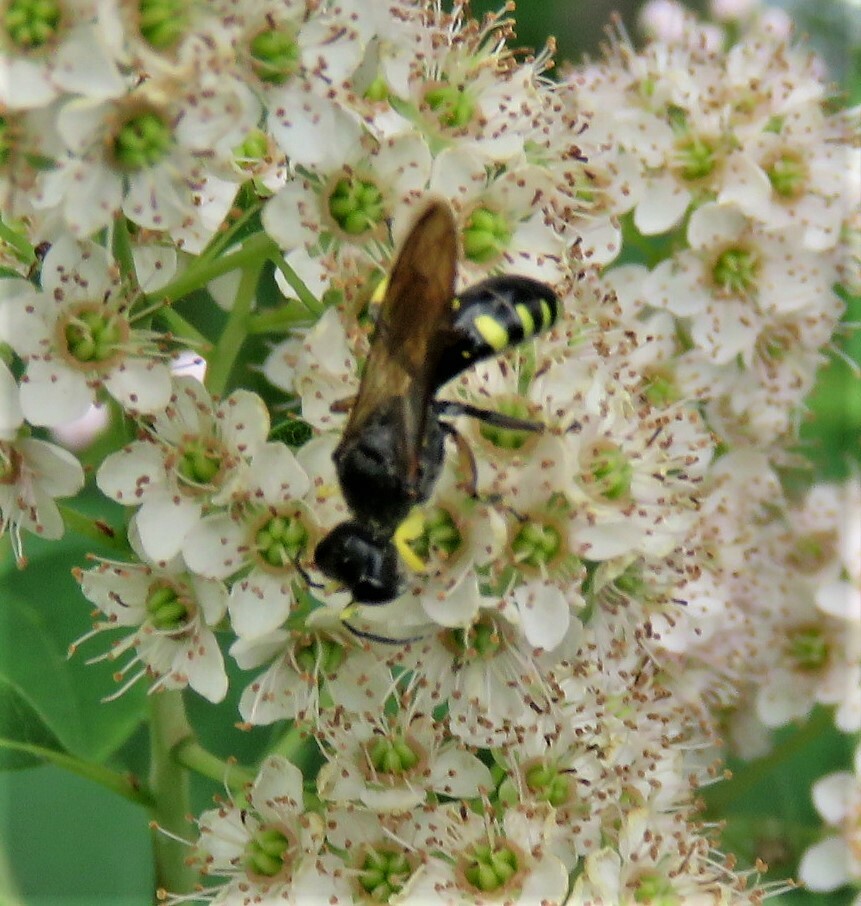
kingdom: Animalia
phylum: Arthropoda
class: Insecta
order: Hymenoptera
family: Crabronidae
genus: Ectemnius
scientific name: Ectemnius maculosus
